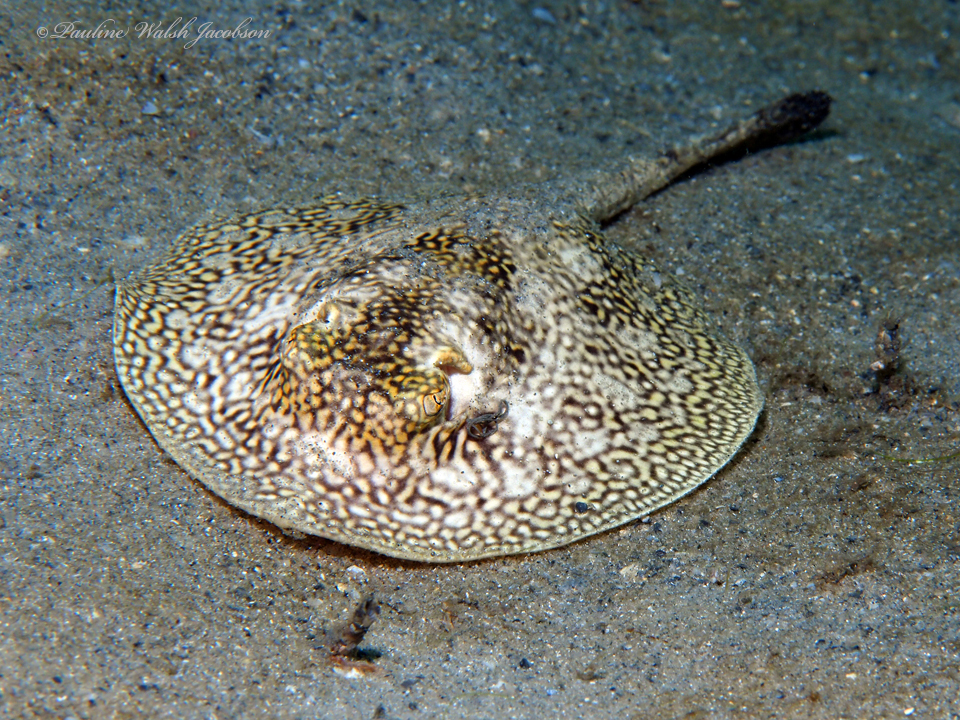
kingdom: Animalia
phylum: Chordata
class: Elasmobranchii
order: Myliobatiformes
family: Urotrygonidae
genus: Urobatis
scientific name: Urobatis jamaicensis
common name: Yellow stingray
